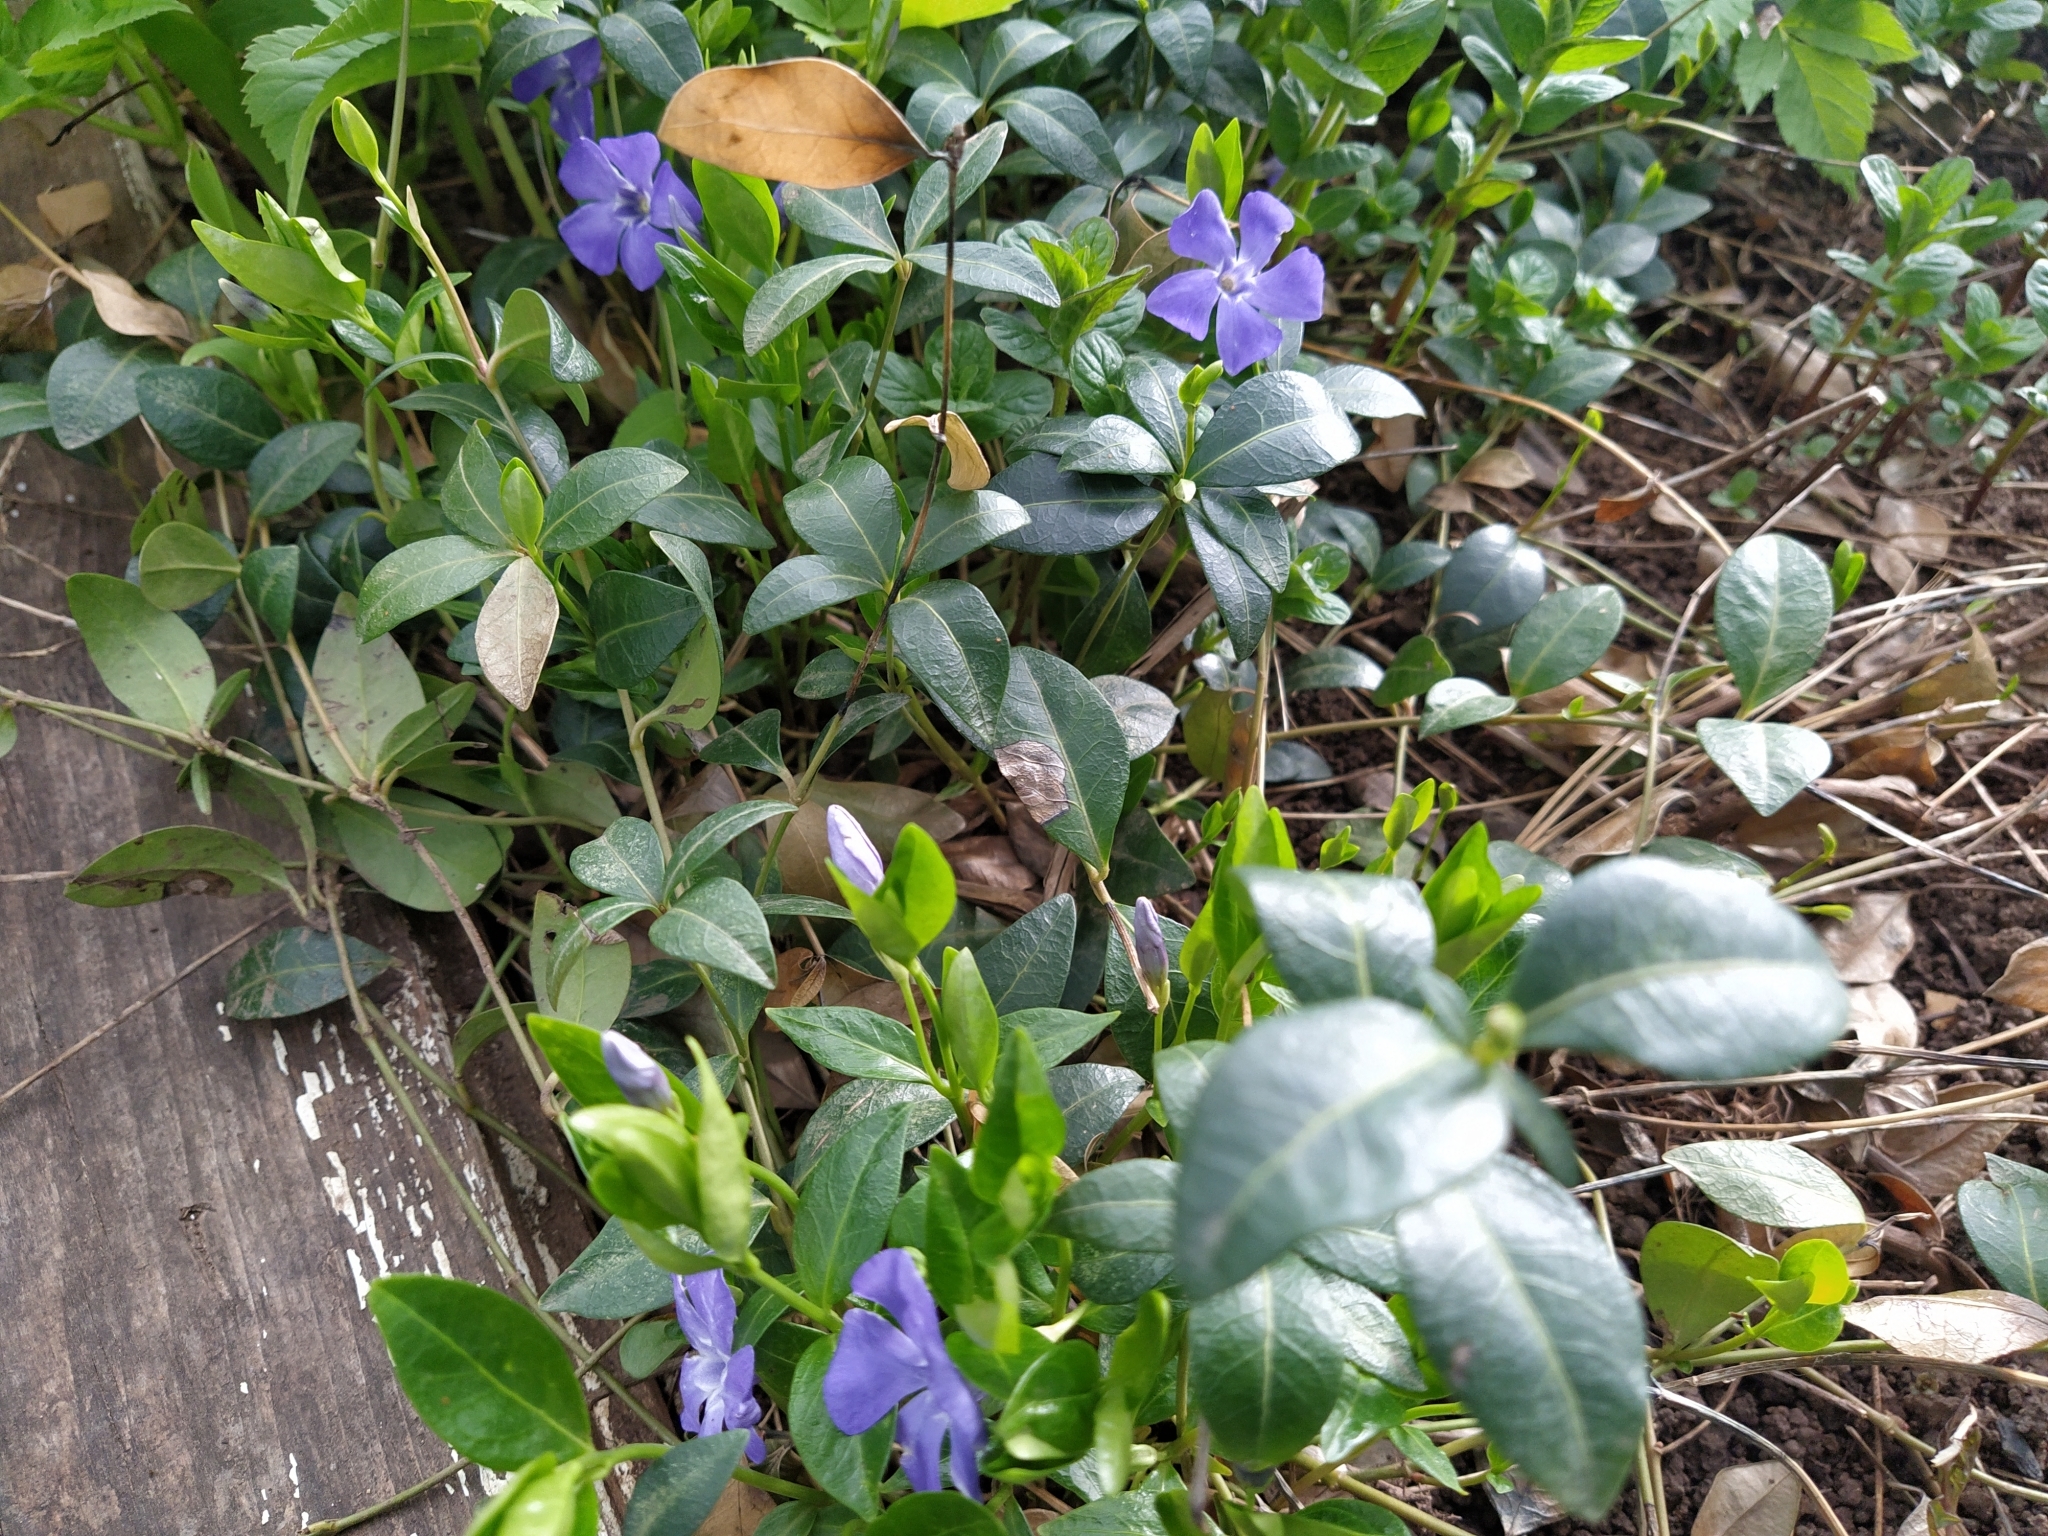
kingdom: Plantae
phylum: Tracheophyta
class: Magnoliopsida
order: Gentianales
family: Apocynaceae
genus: Vinca
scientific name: Vinca minor
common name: Lesser periwinkle
